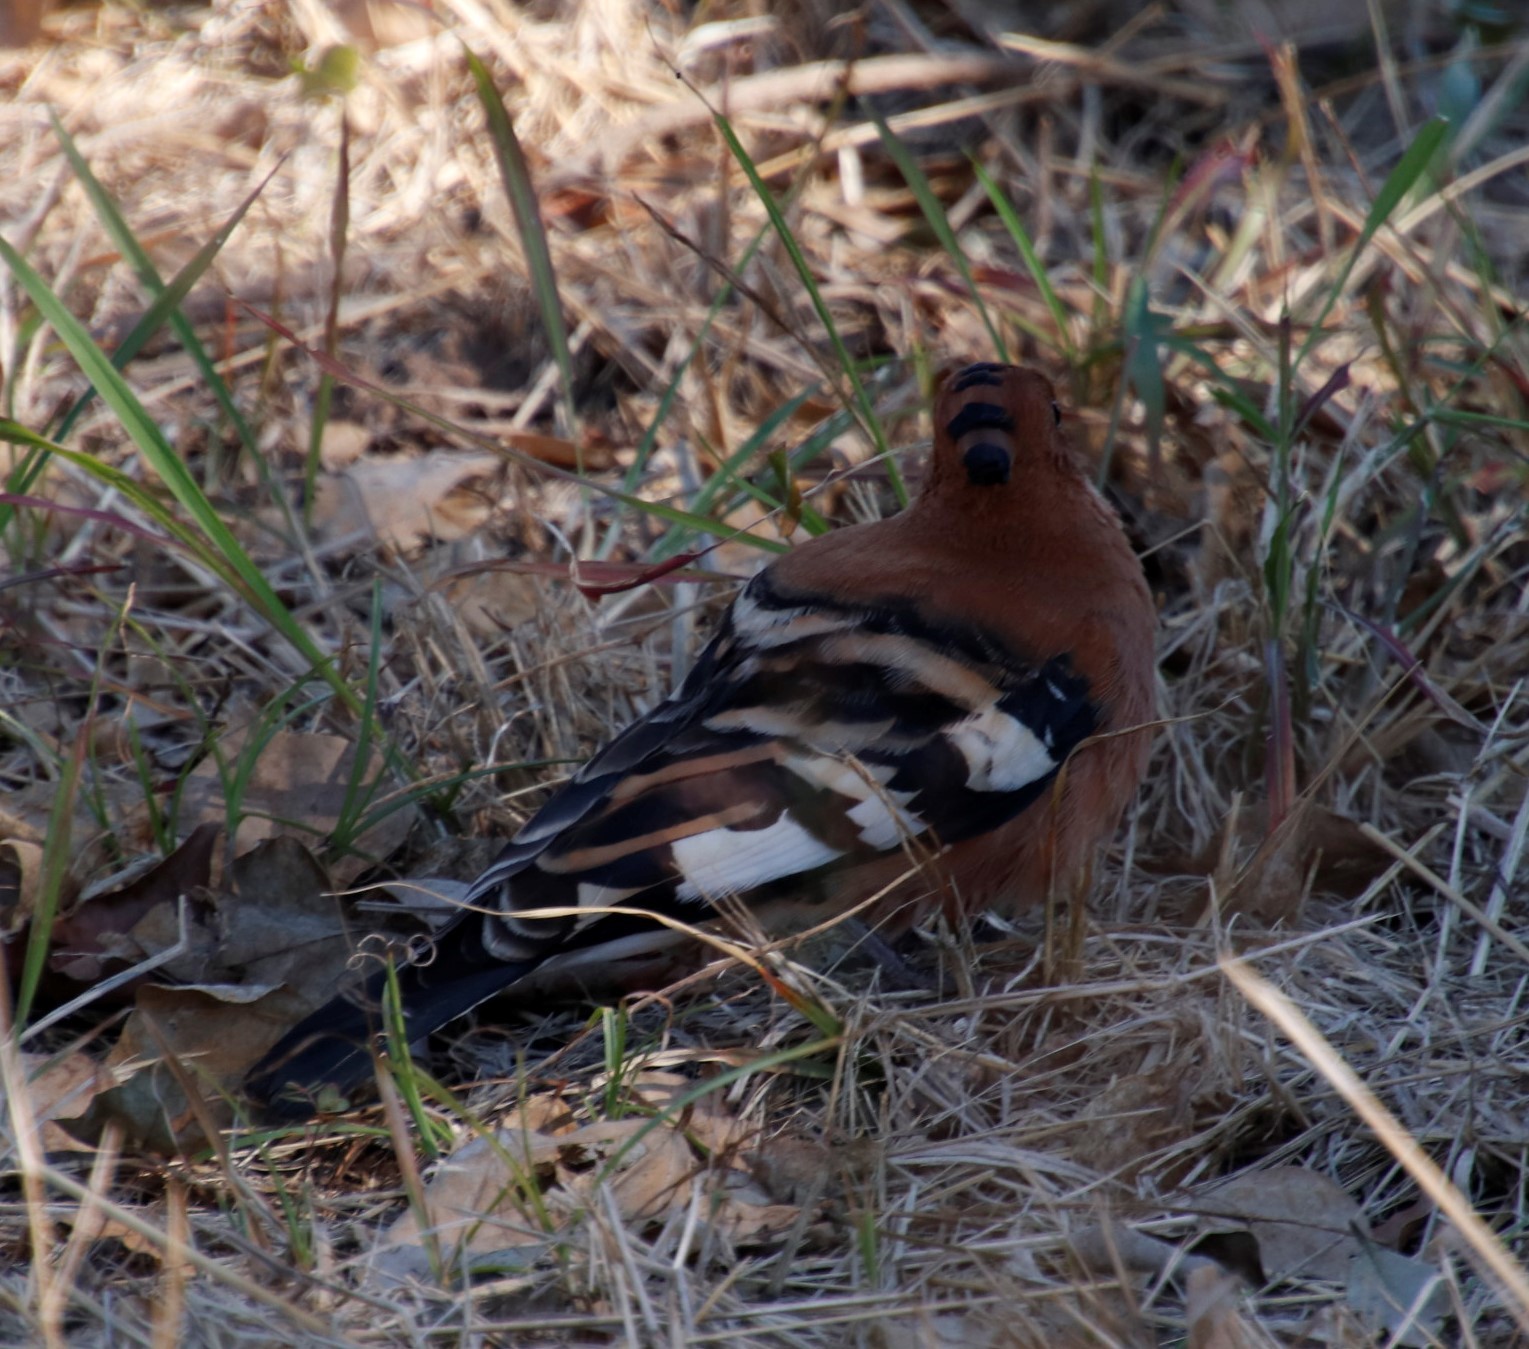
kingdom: Animalia
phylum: Chordata
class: Aves
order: Bucerotiformes
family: Upupidae
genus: Upupa
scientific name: Upupa africana
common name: African hoopoe
